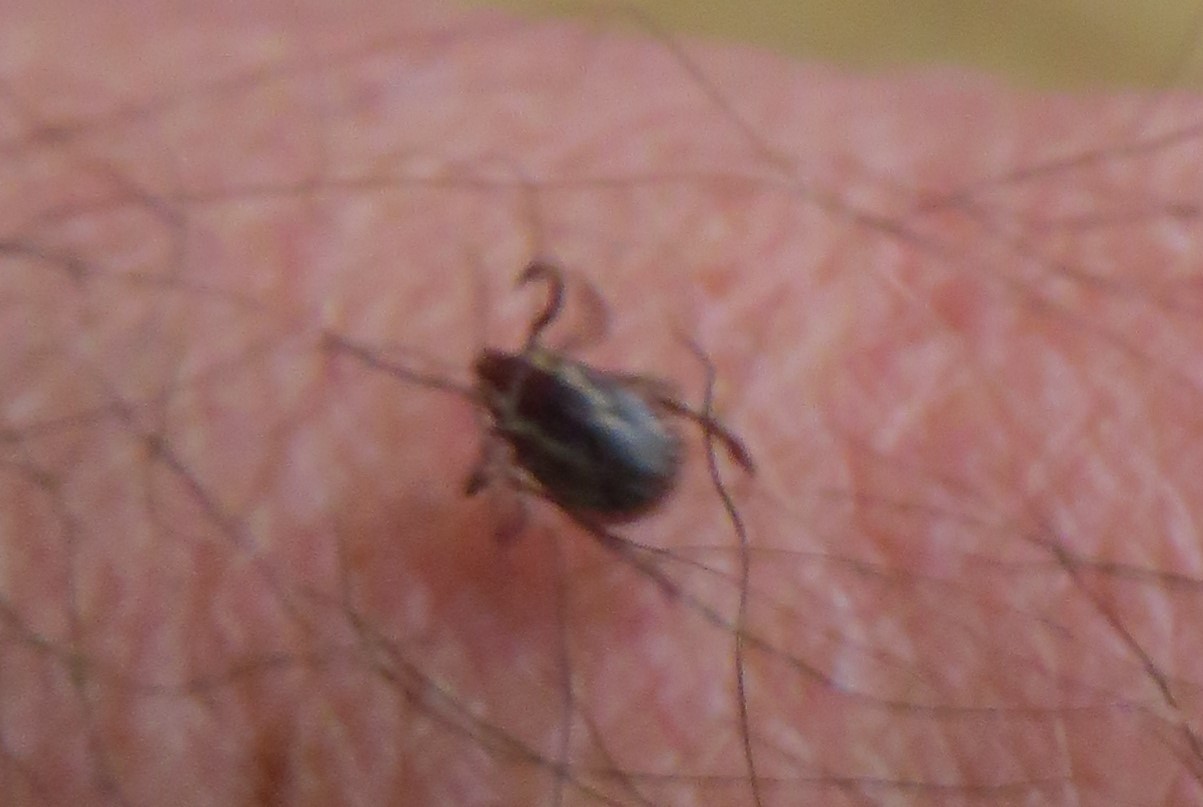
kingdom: Animalia
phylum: Arthropoda
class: Arachnida
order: Ixodida
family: Ixodidae
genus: Dermacentor
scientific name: Dermacentor variabilis
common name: American dog tick
